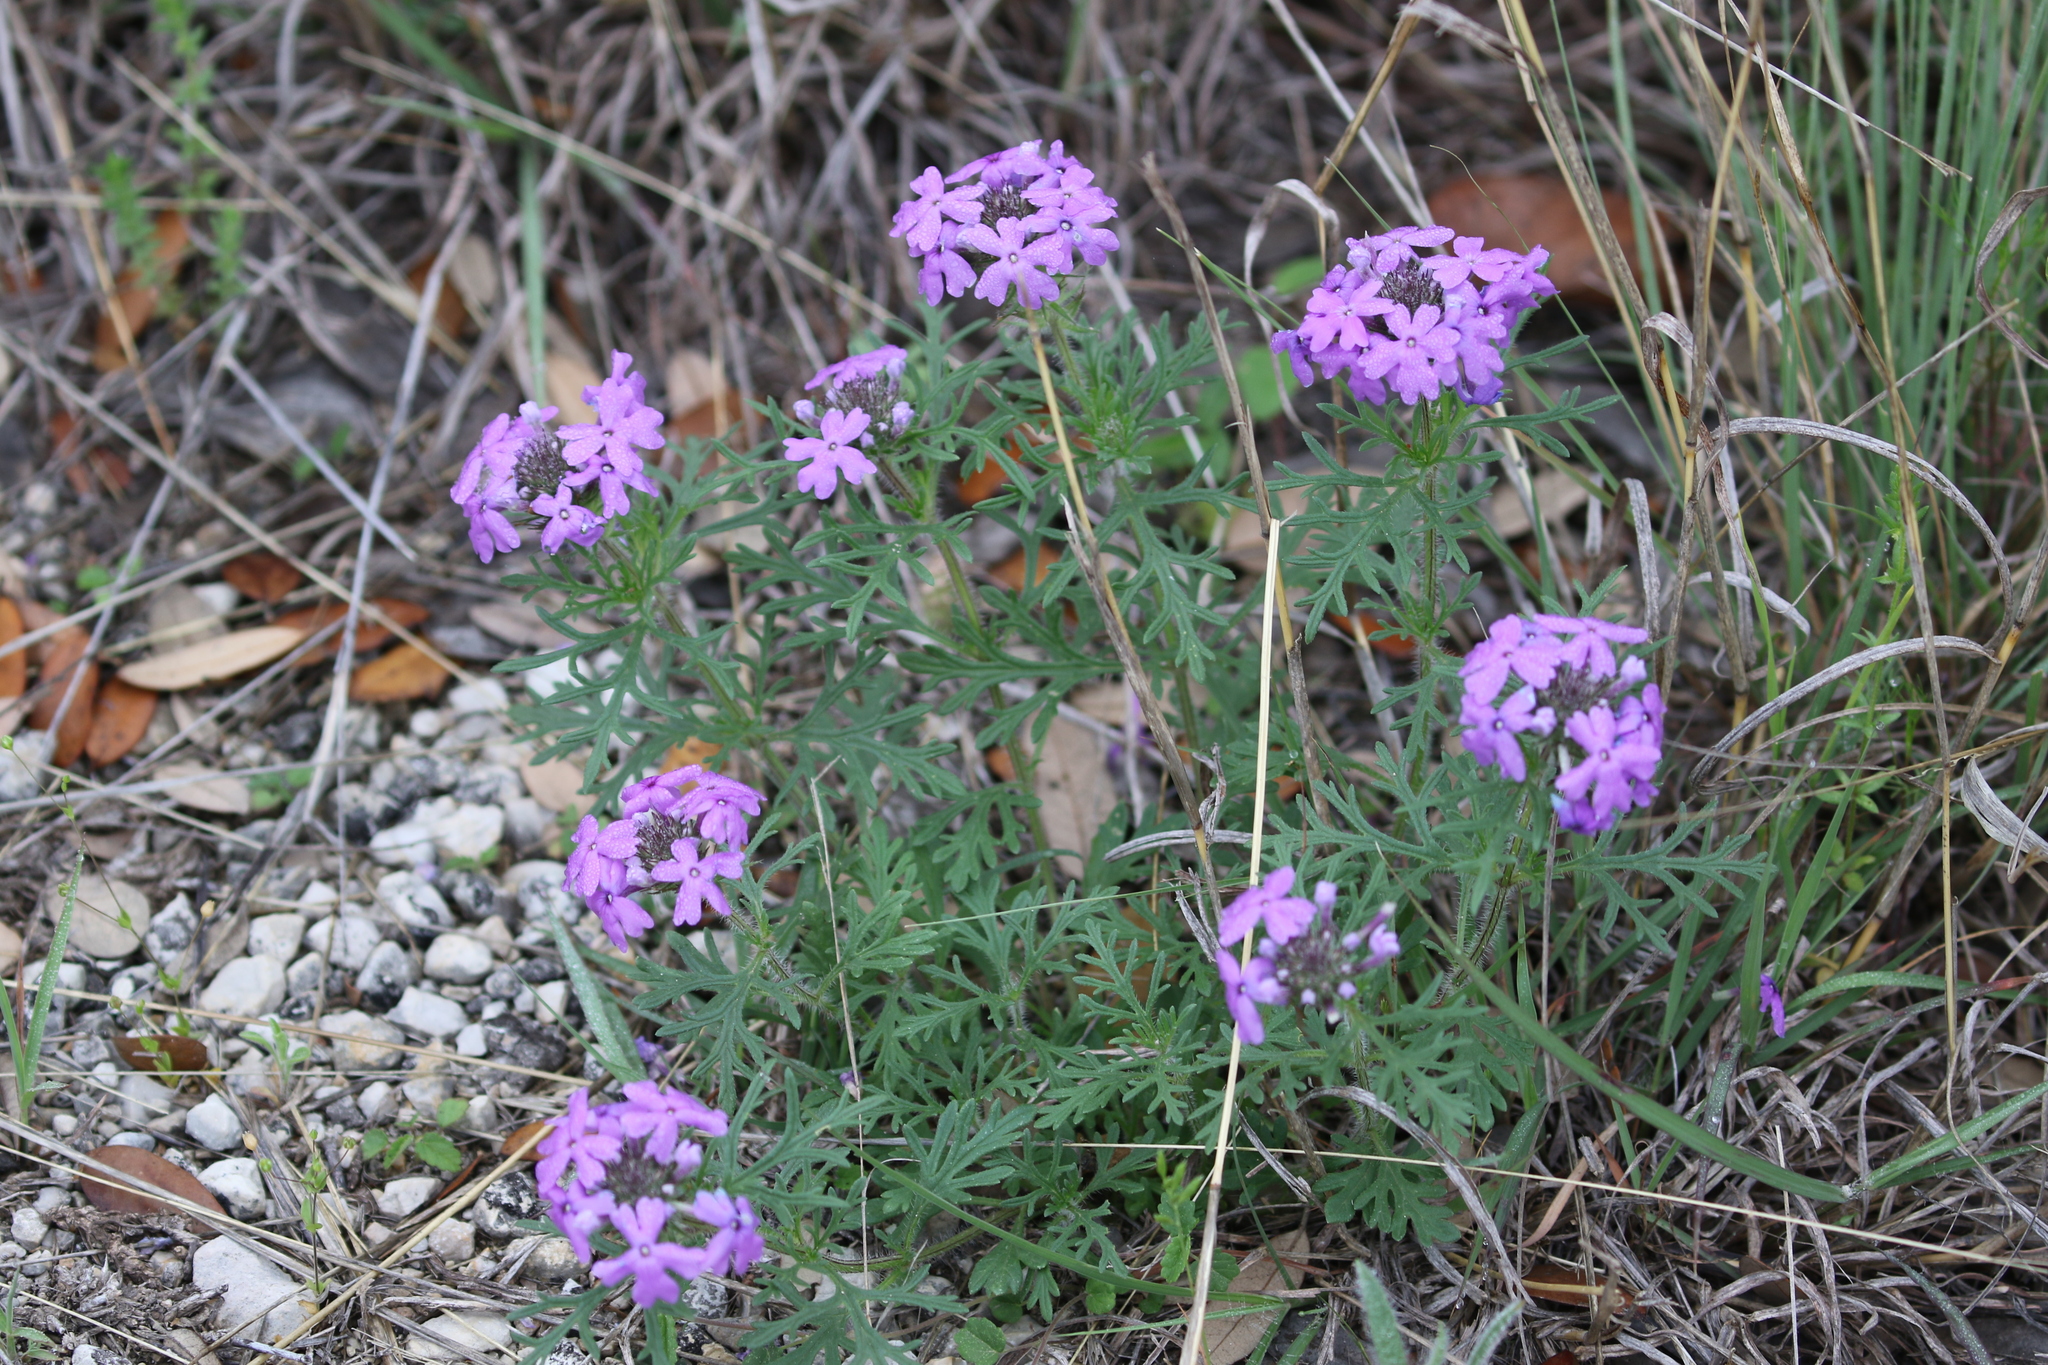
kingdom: Plantae
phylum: Tracheophyta
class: Magnoliopsida
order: Lamiales
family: Verbenaceae
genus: Verbena
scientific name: Verbena bipinnatifida
